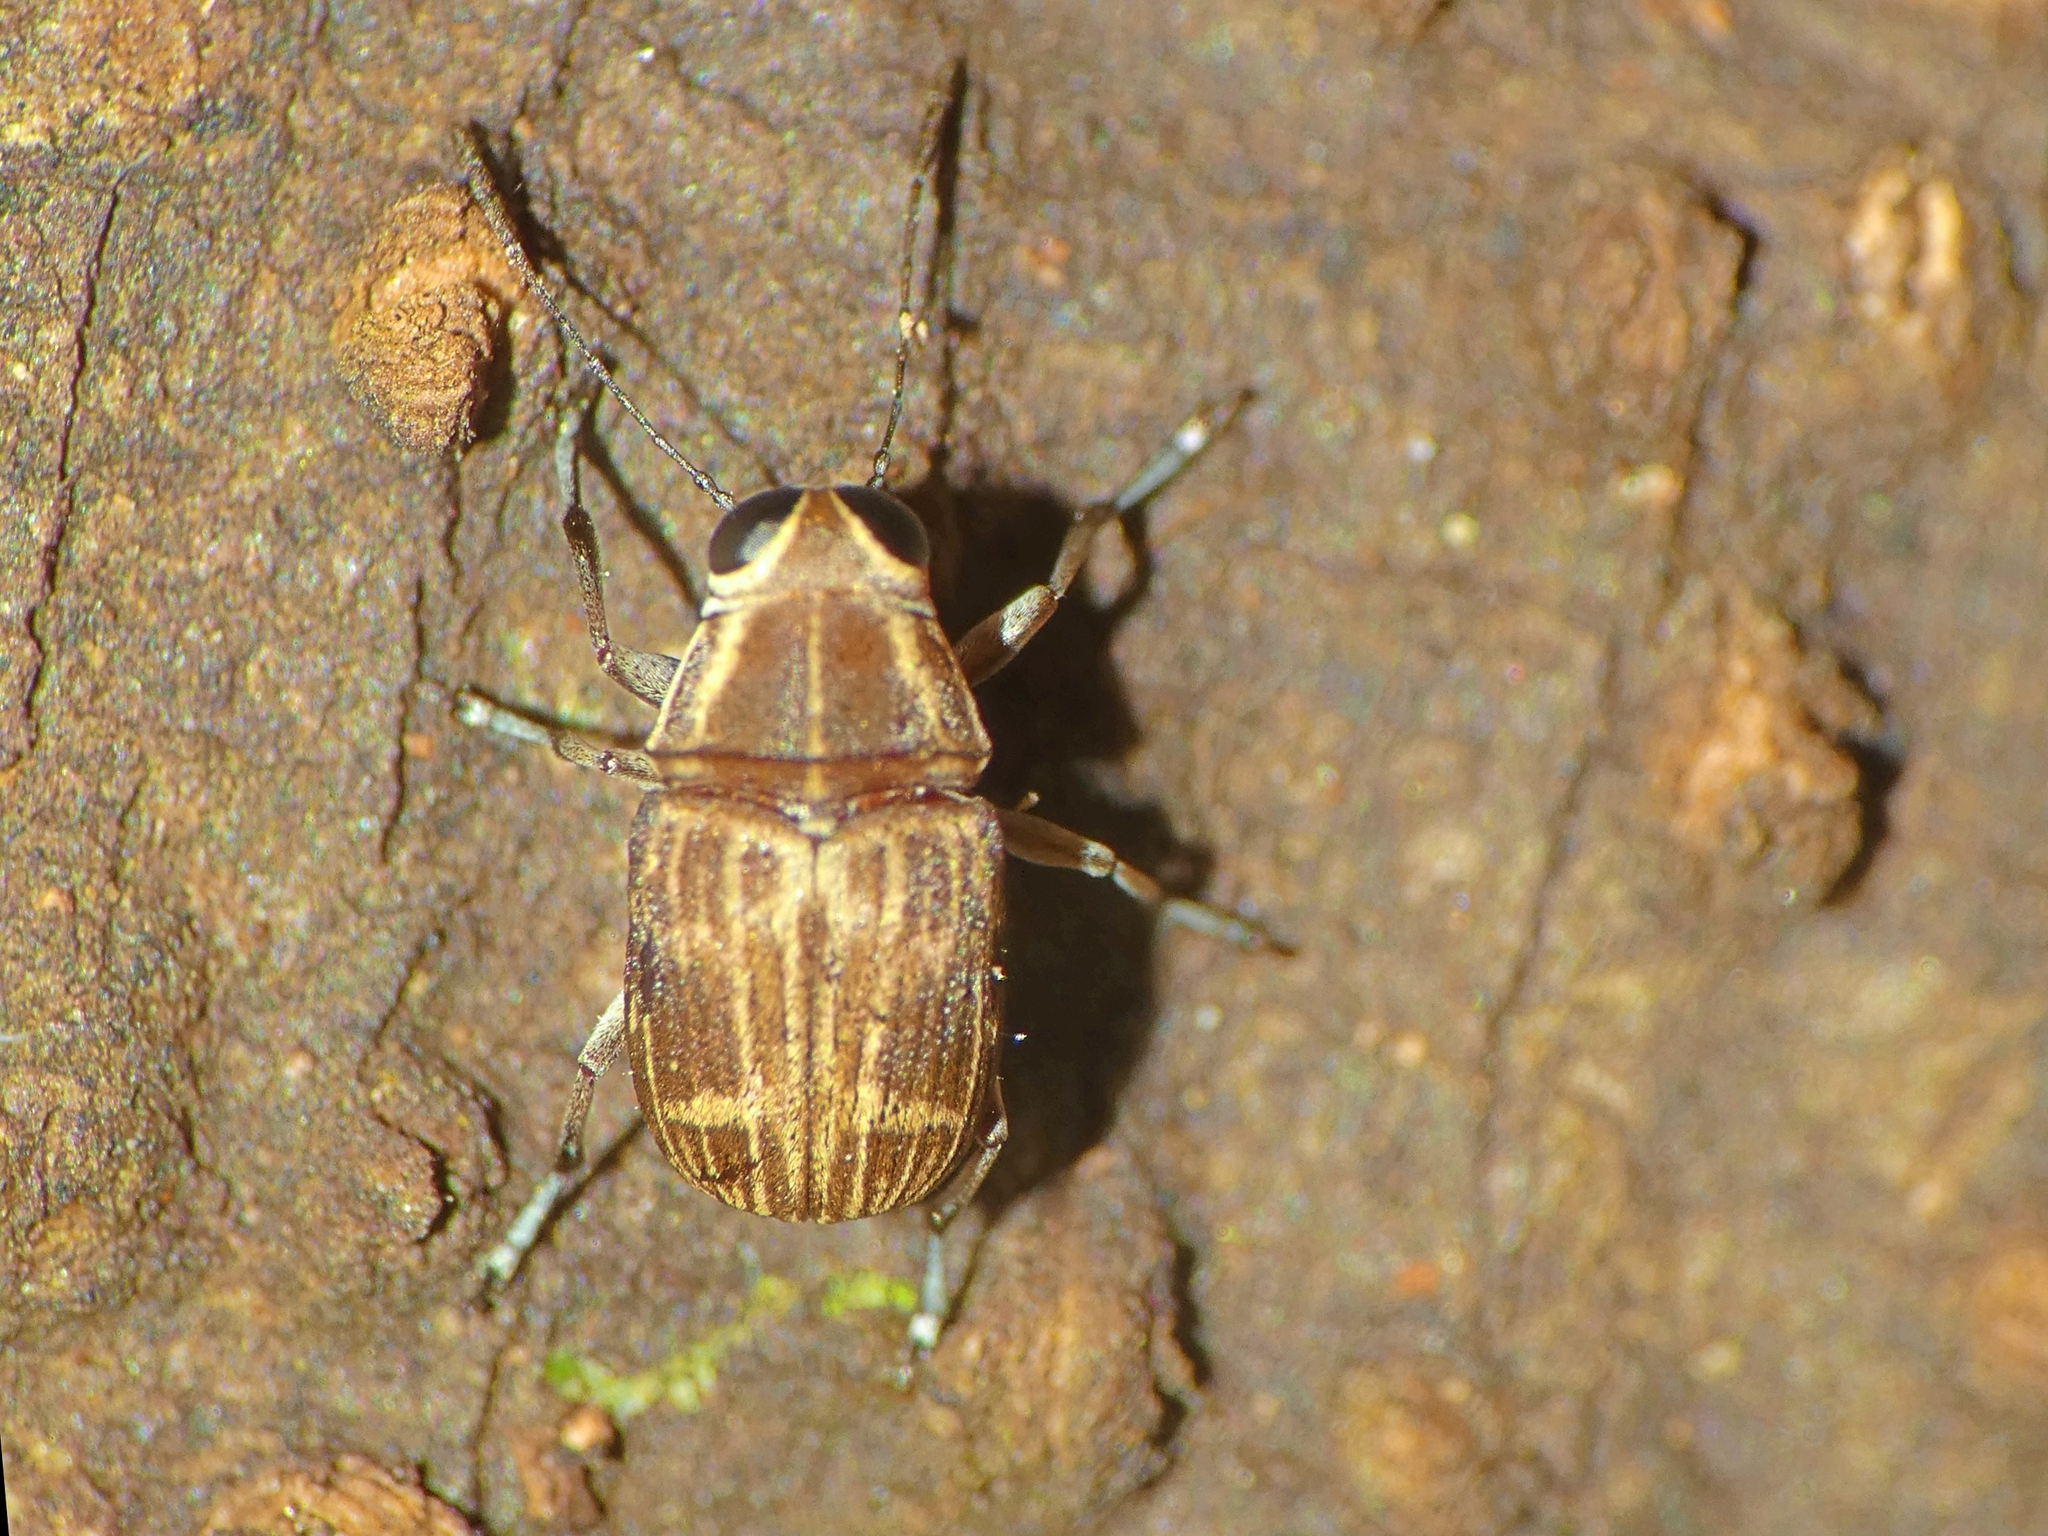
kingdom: Animalia
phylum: Arthropoda
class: Insecta
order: Coleoptera
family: Anthribidae
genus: Hucus
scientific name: Hucus persimilis
